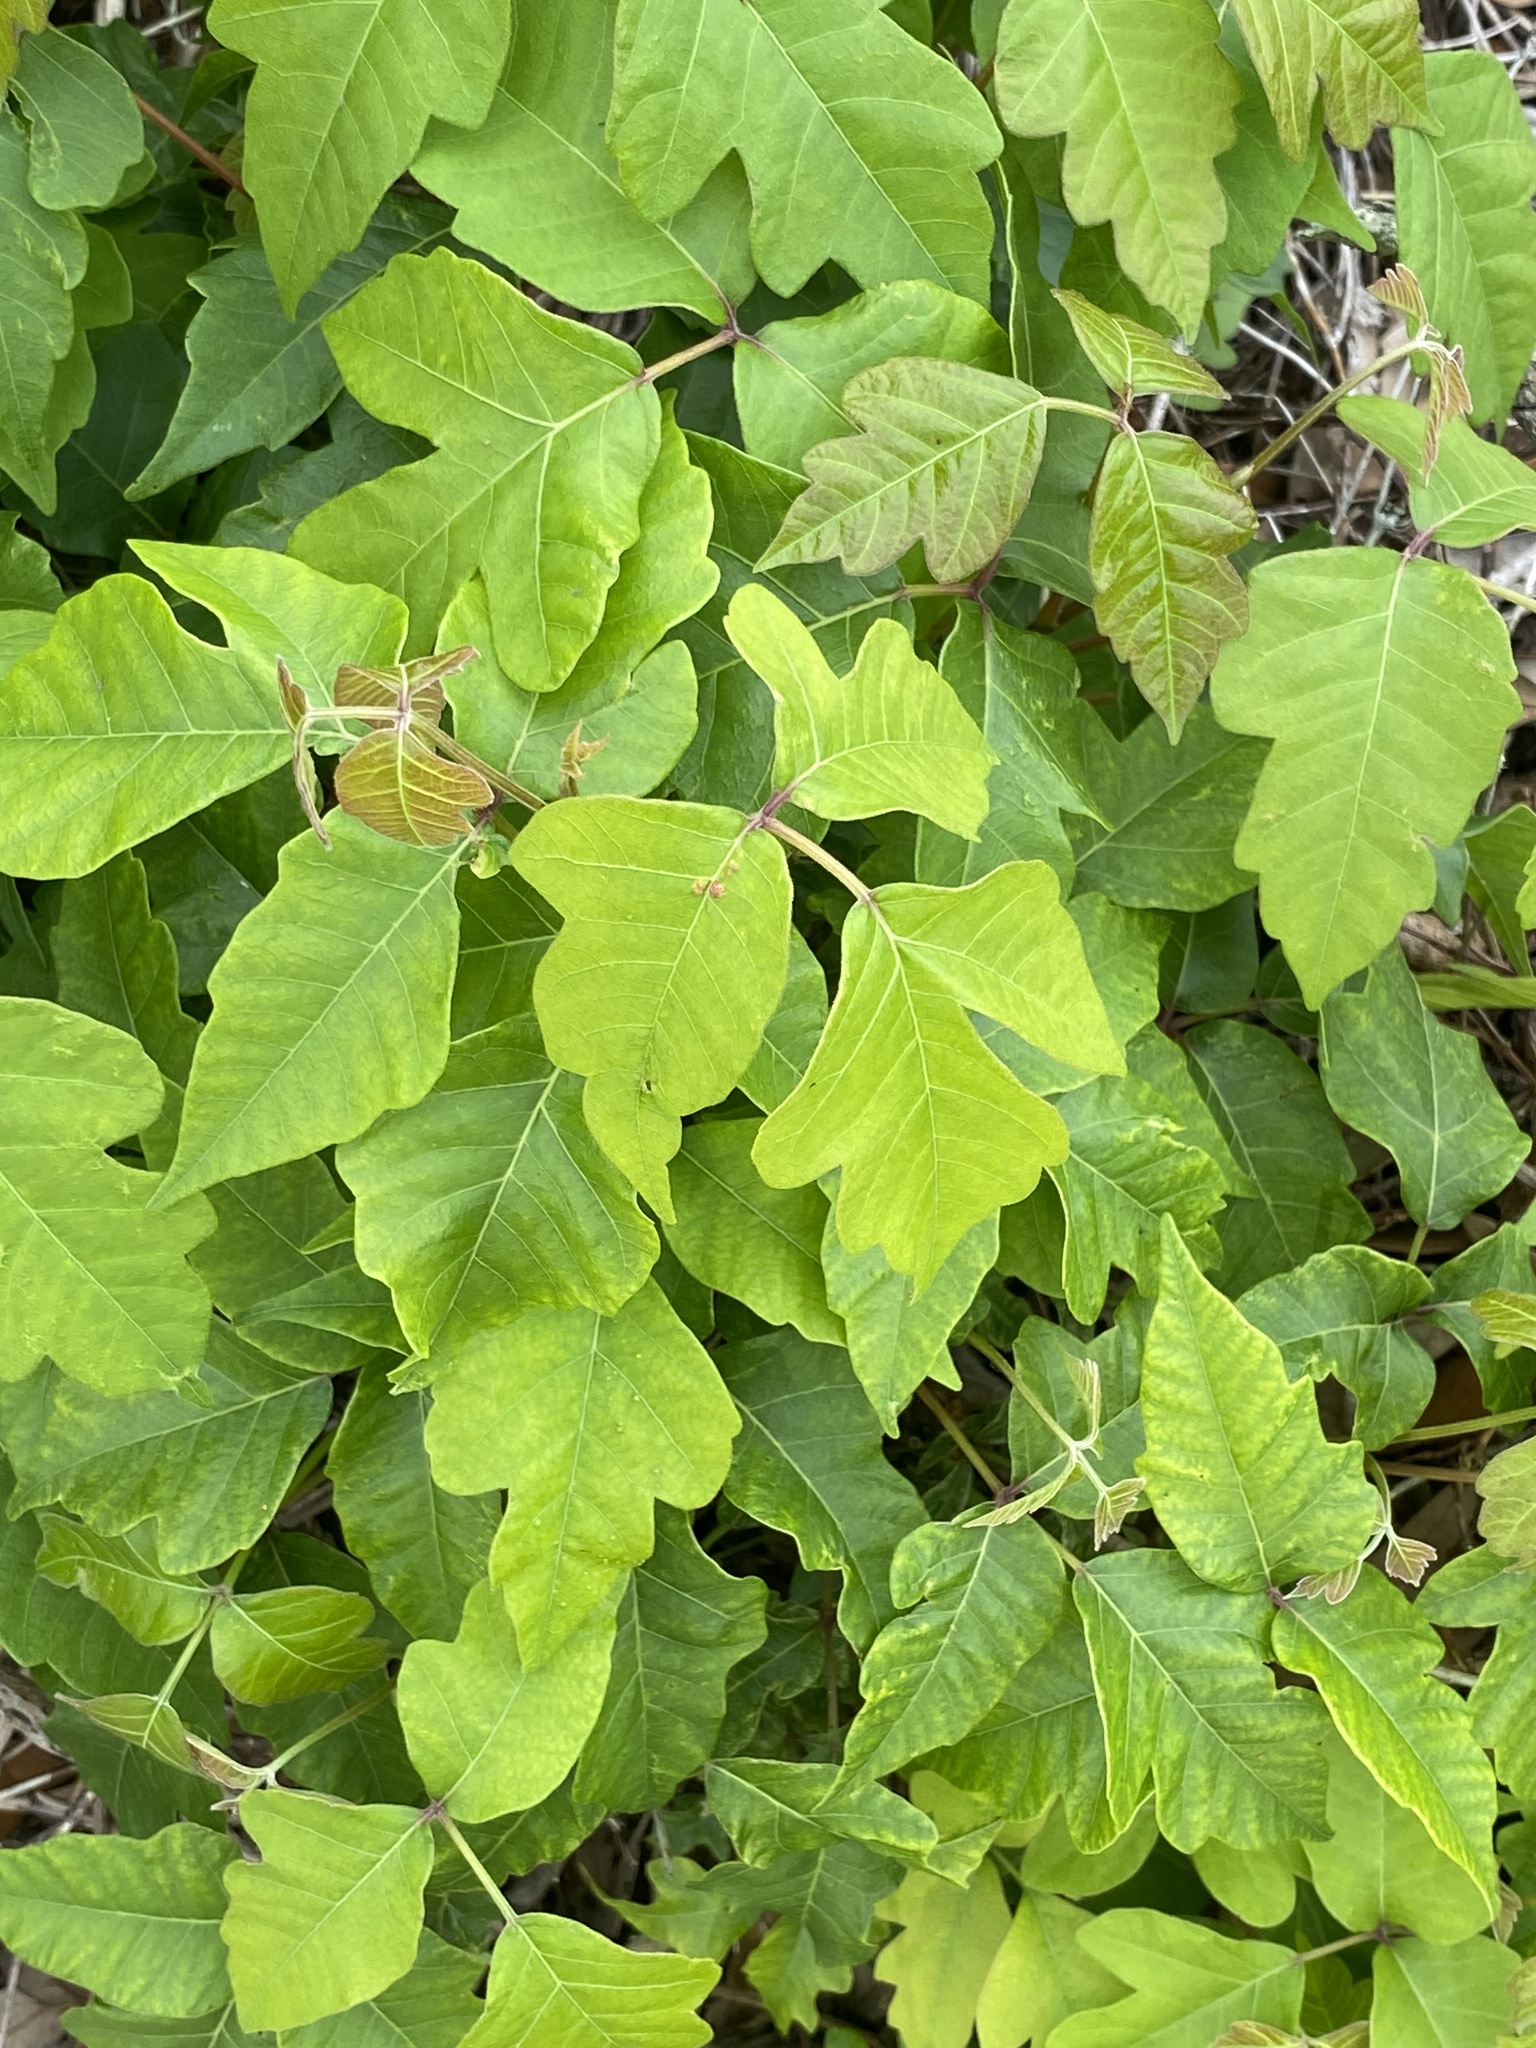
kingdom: Plantae
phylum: Tracheophyta
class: Magnoliopsida
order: Sapindales
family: Anacardiaceae
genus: Toxicodendron
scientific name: Toxicodendron radicans
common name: Poison ivy
